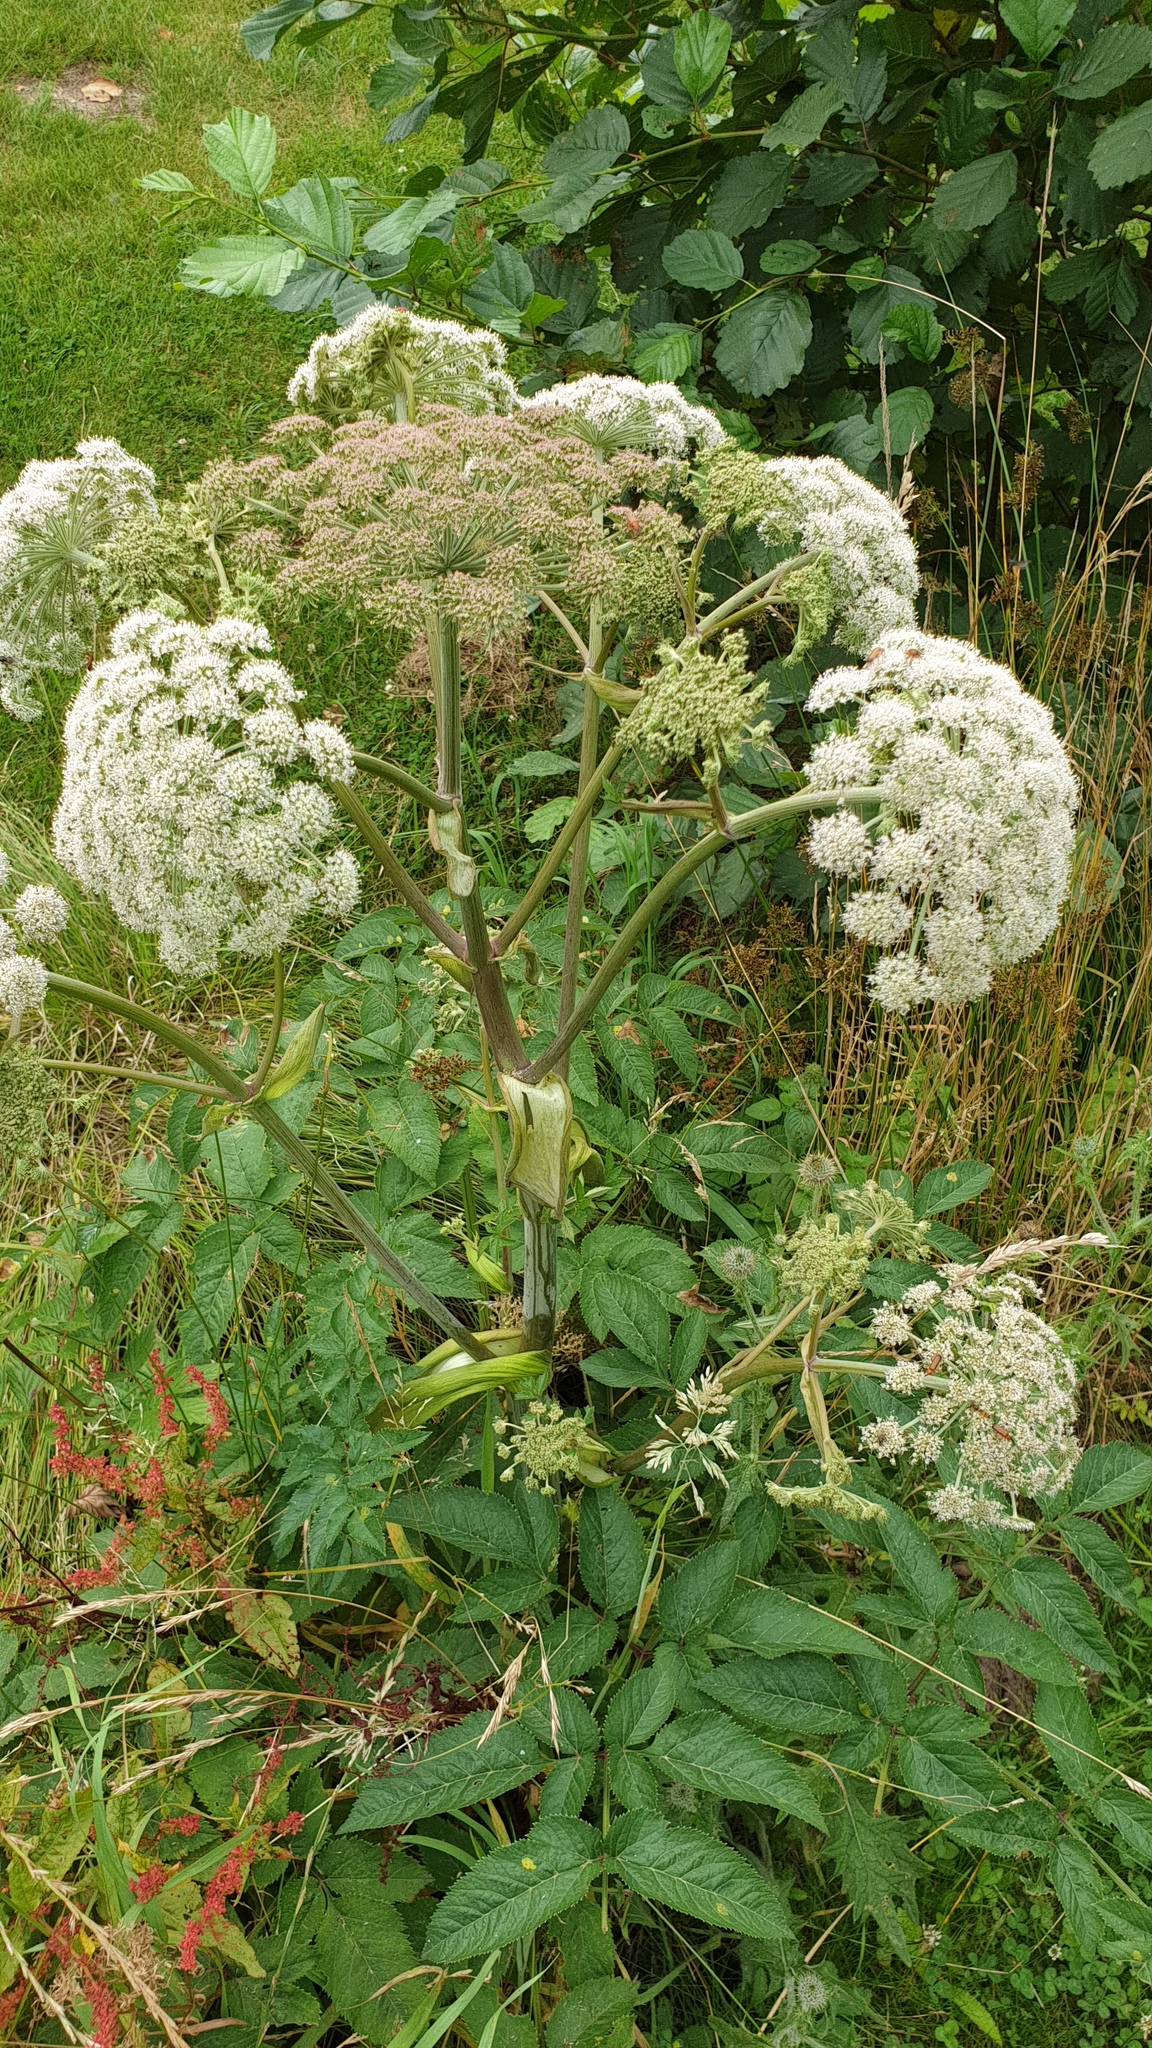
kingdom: Plantae
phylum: Tracheophyta
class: Magnoliopsida
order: Apiales
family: Apiaceae
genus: Angelica
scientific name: Angelica sylvestris
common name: Wild angelica
